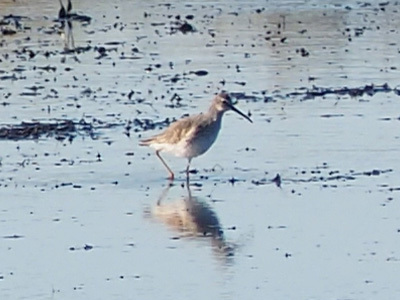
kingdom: Animalia
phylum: Chordata
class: Aves
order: Charadriiformes
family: Scolopacidae
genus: Calidris
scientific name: Calidris himantopus
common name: Stilt sandpiper
